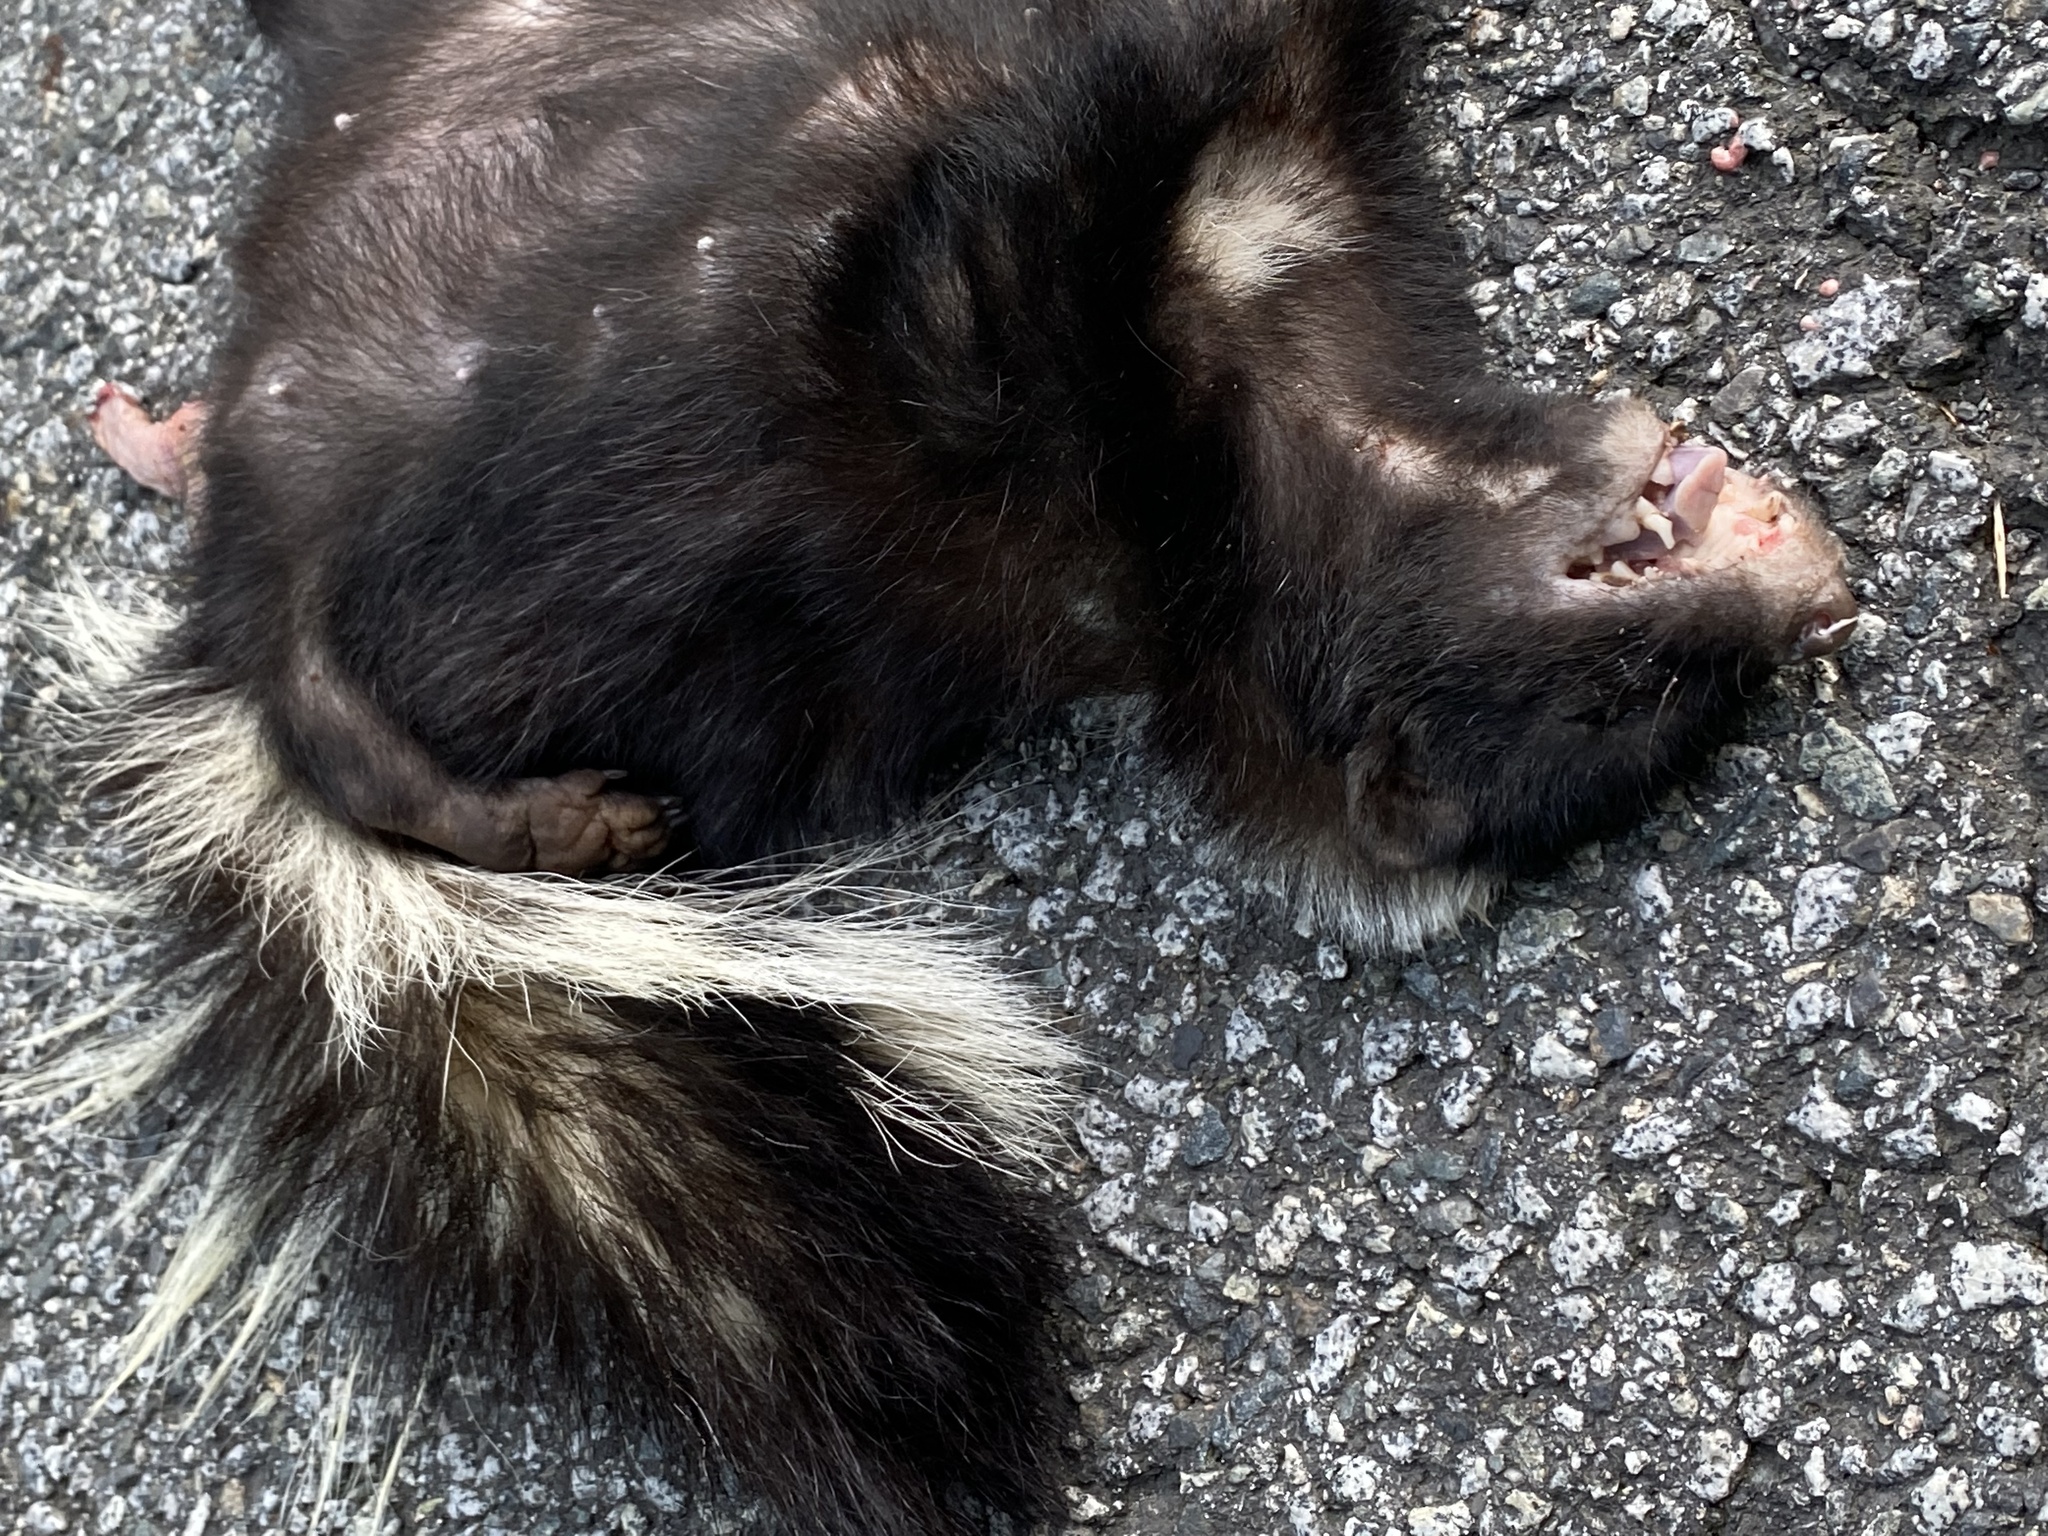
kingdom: Animalia
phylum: Chordata
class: Mammalia
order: Carnivora
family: Mephitidae
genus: Mephitis
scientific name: Mephitis mephitis
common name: Striped skunk
